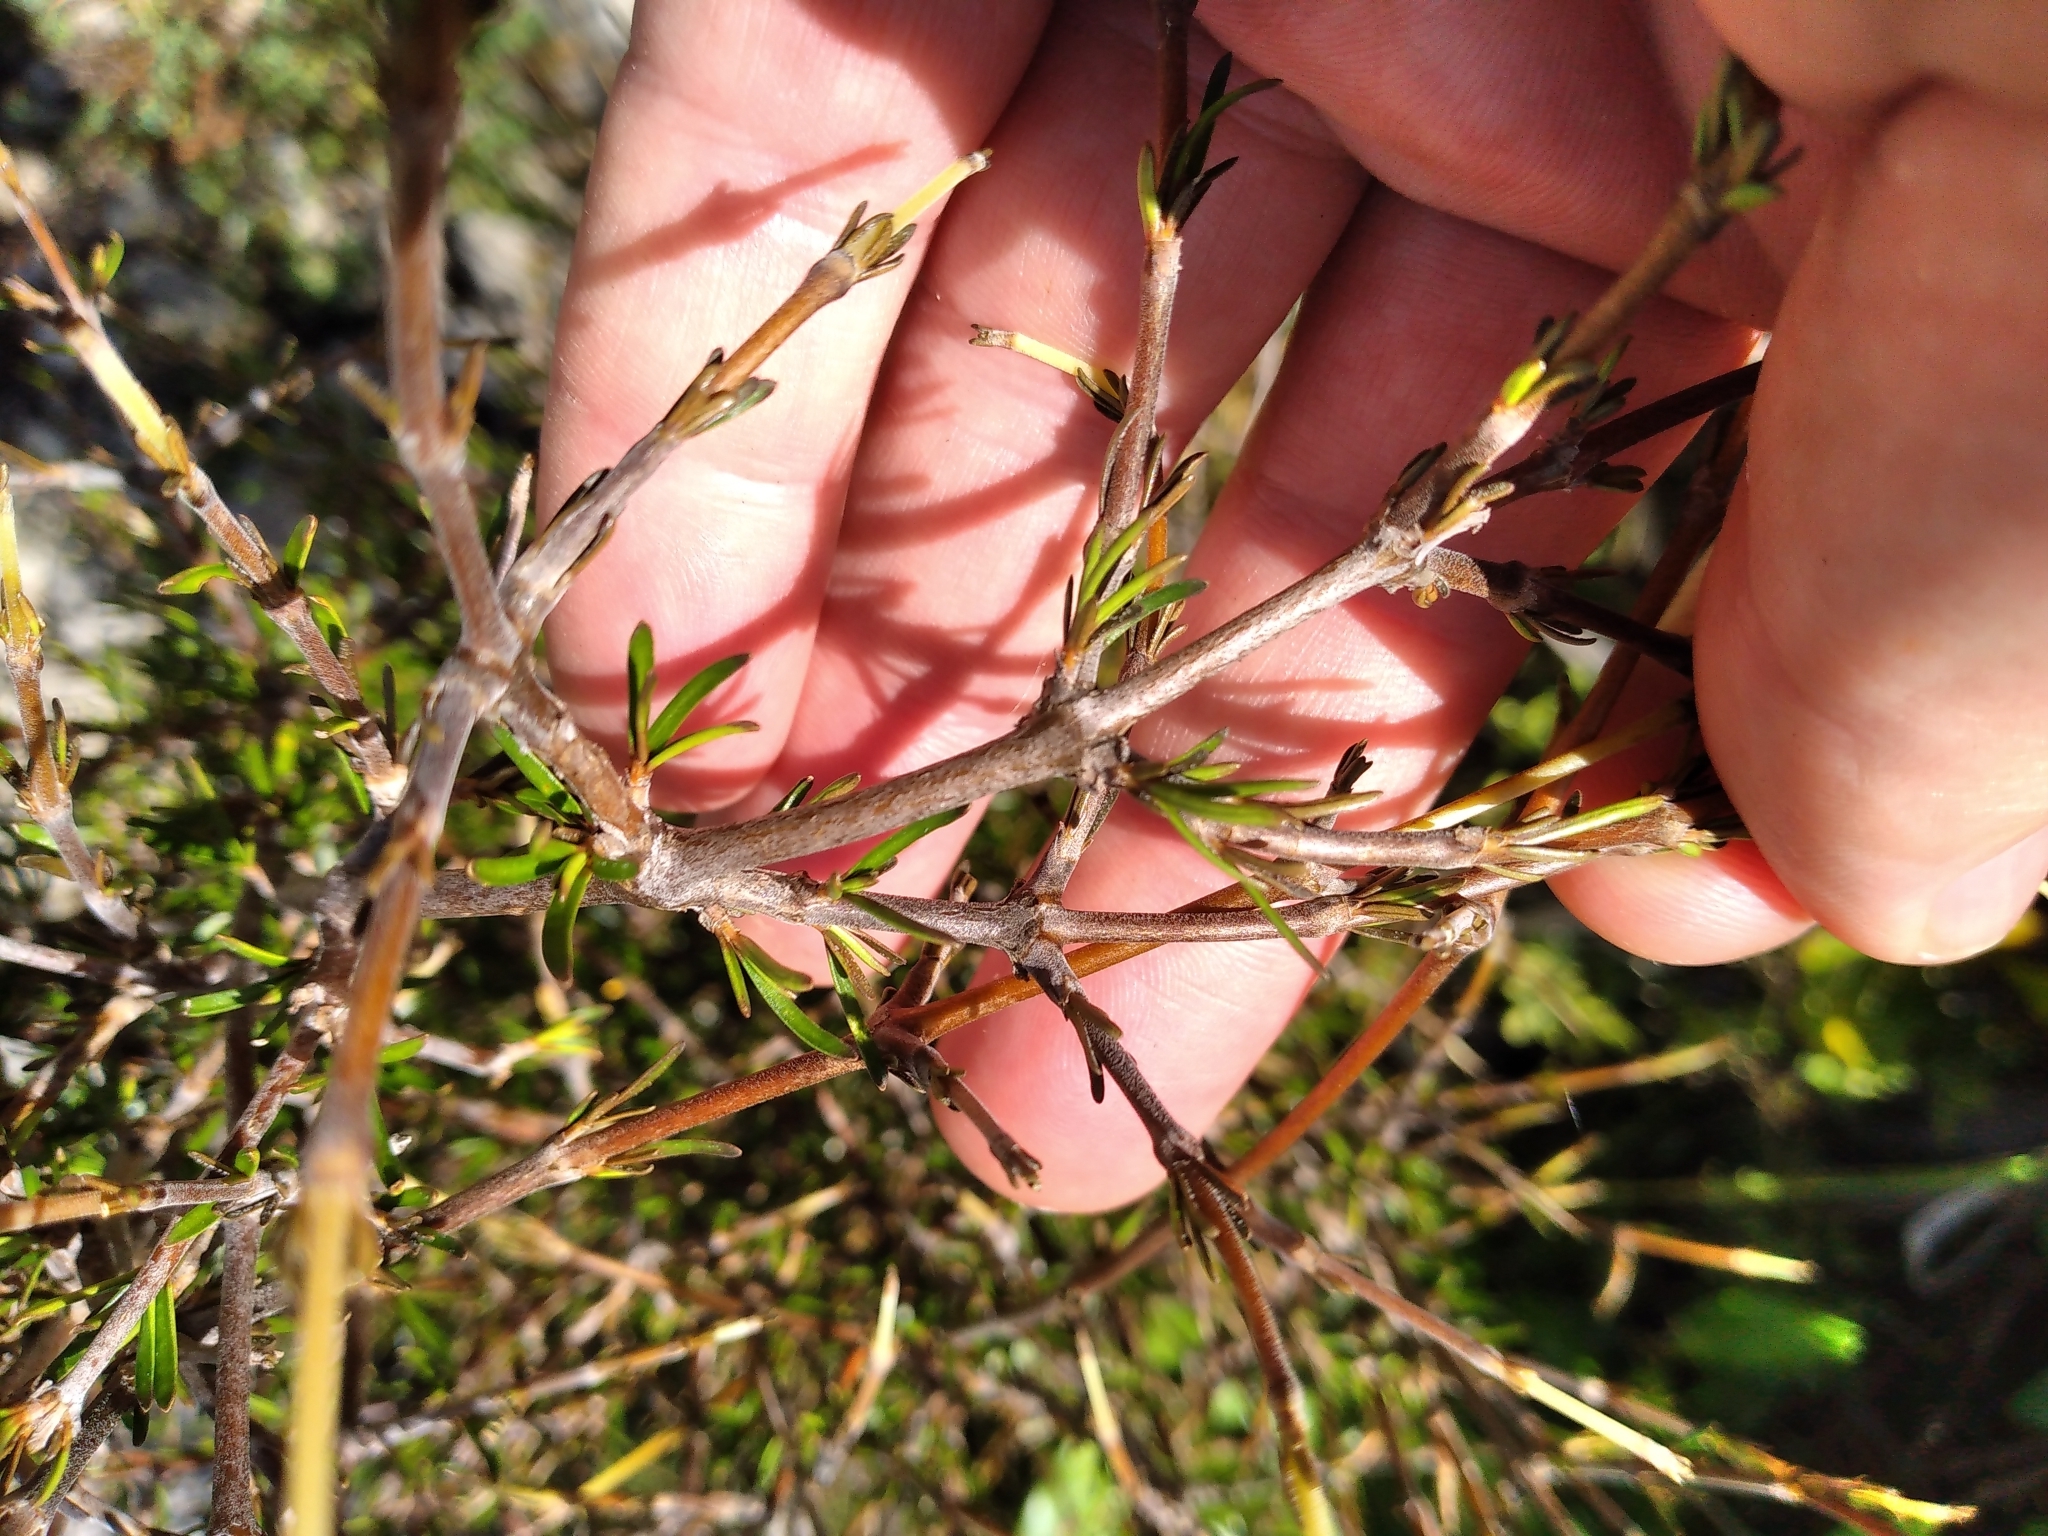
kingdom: Plantae
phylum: Tracheophyta
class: Magnoliopsida
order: Gentianales
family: Rubiaceae
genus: Coprosma
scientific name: Coprosma rugosa
